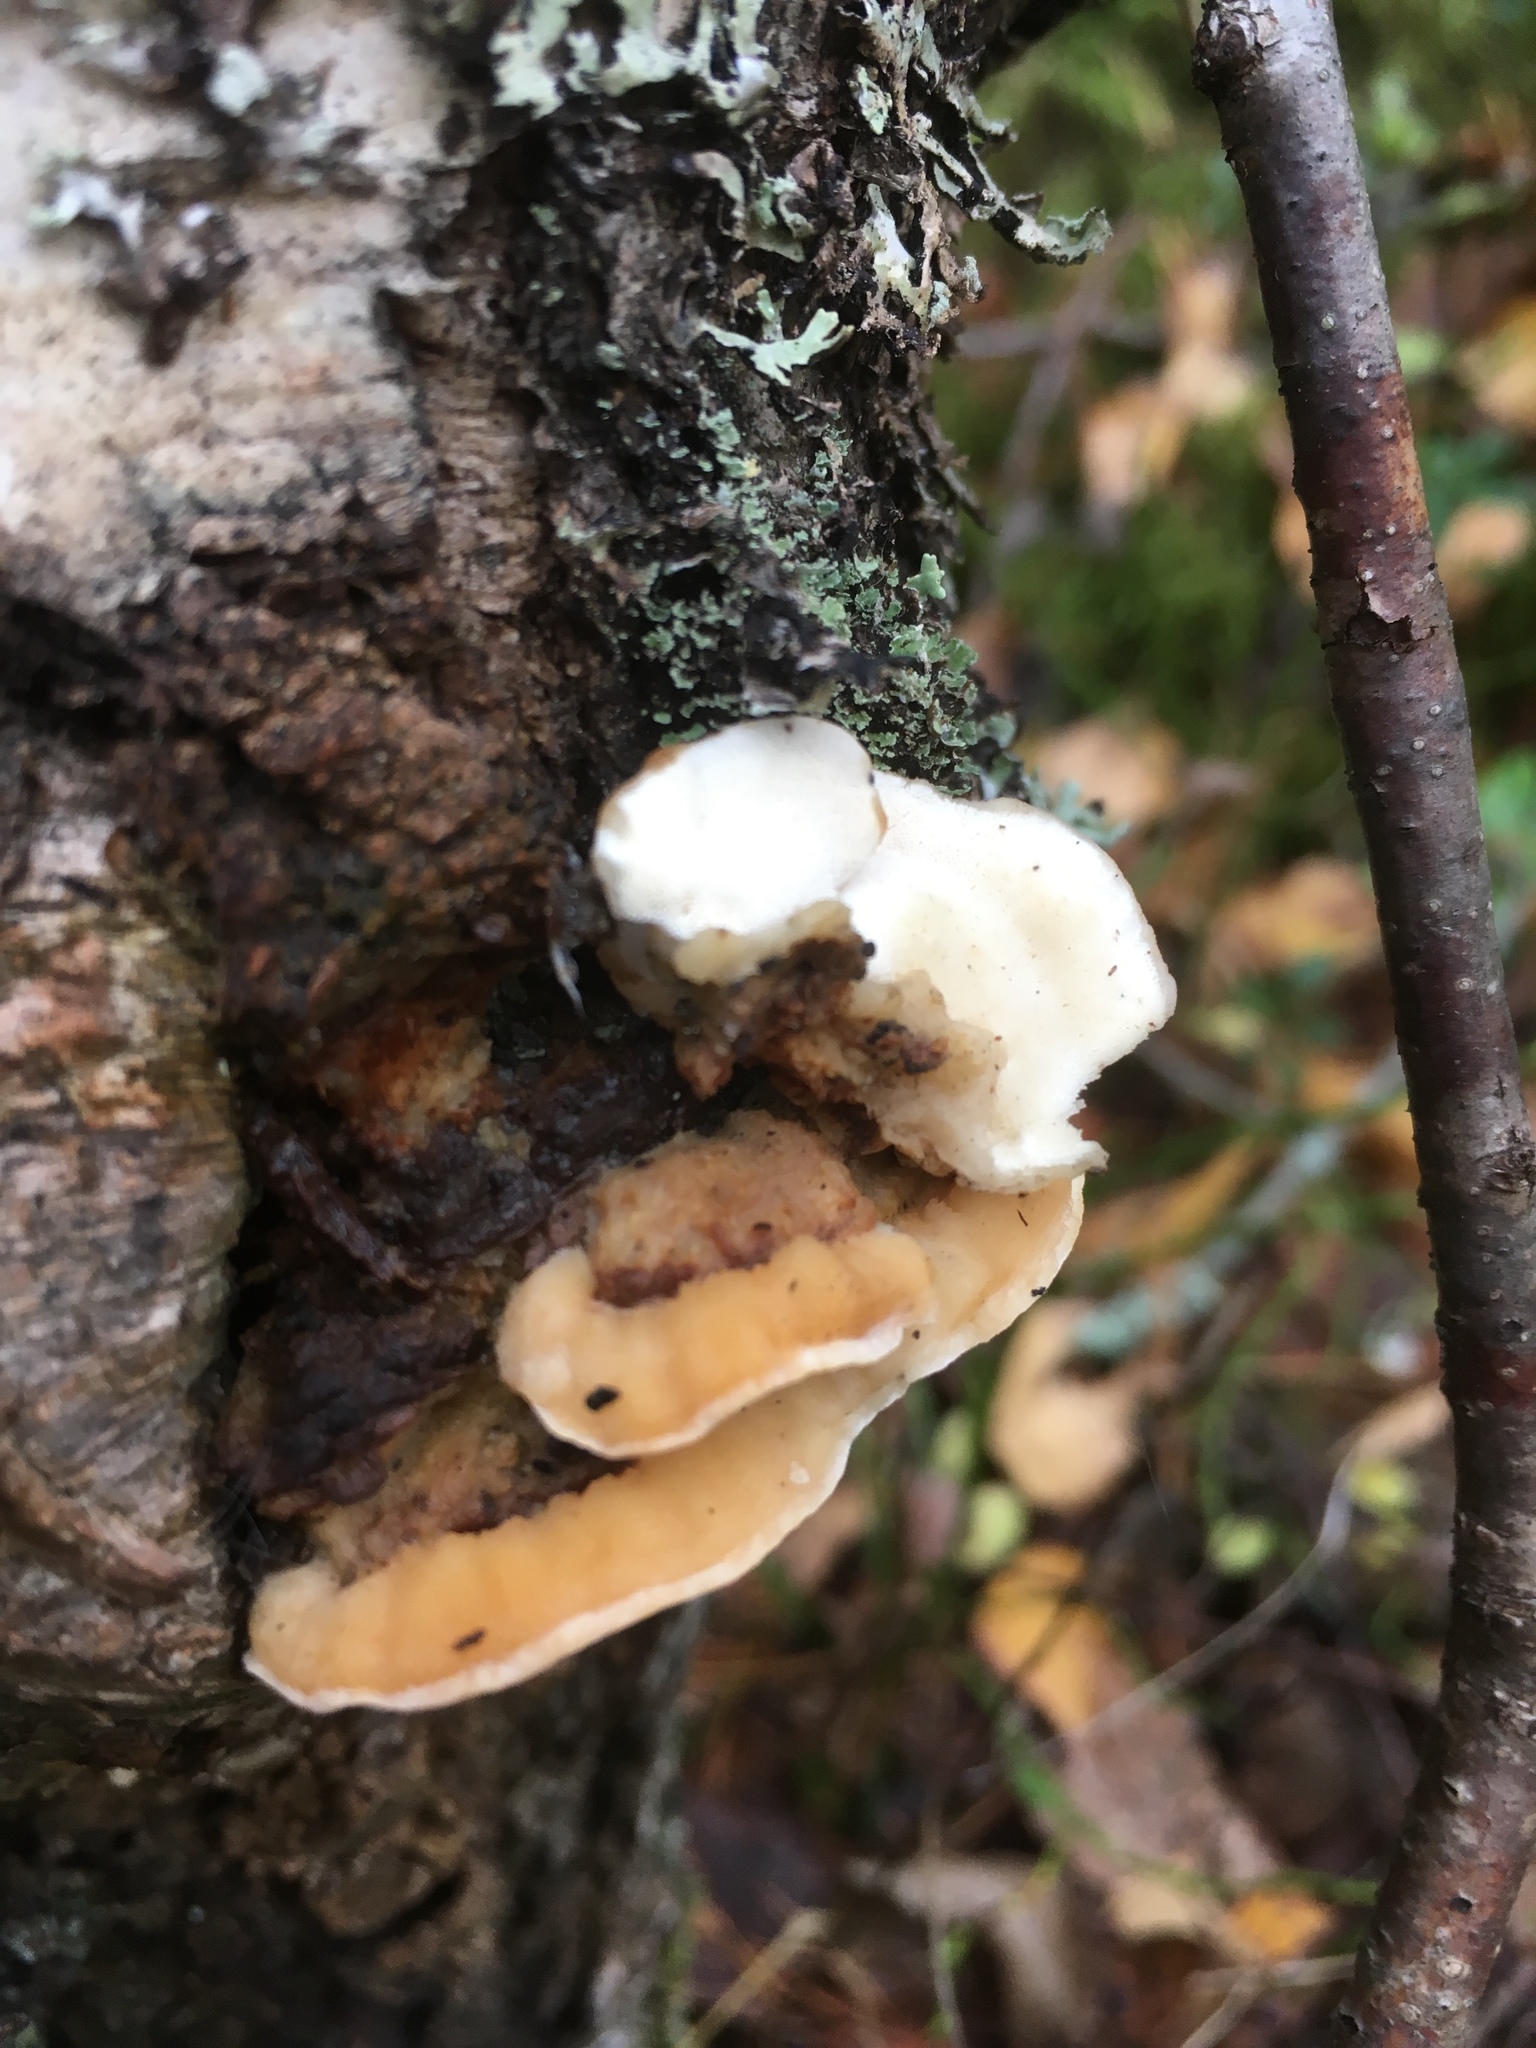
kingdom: Fungi
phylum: Basidiomycota
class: Agaricomycetes
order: Polyporales
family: Steccherinaceae
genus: Antrodiella
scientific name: Antrodiella pallescens
